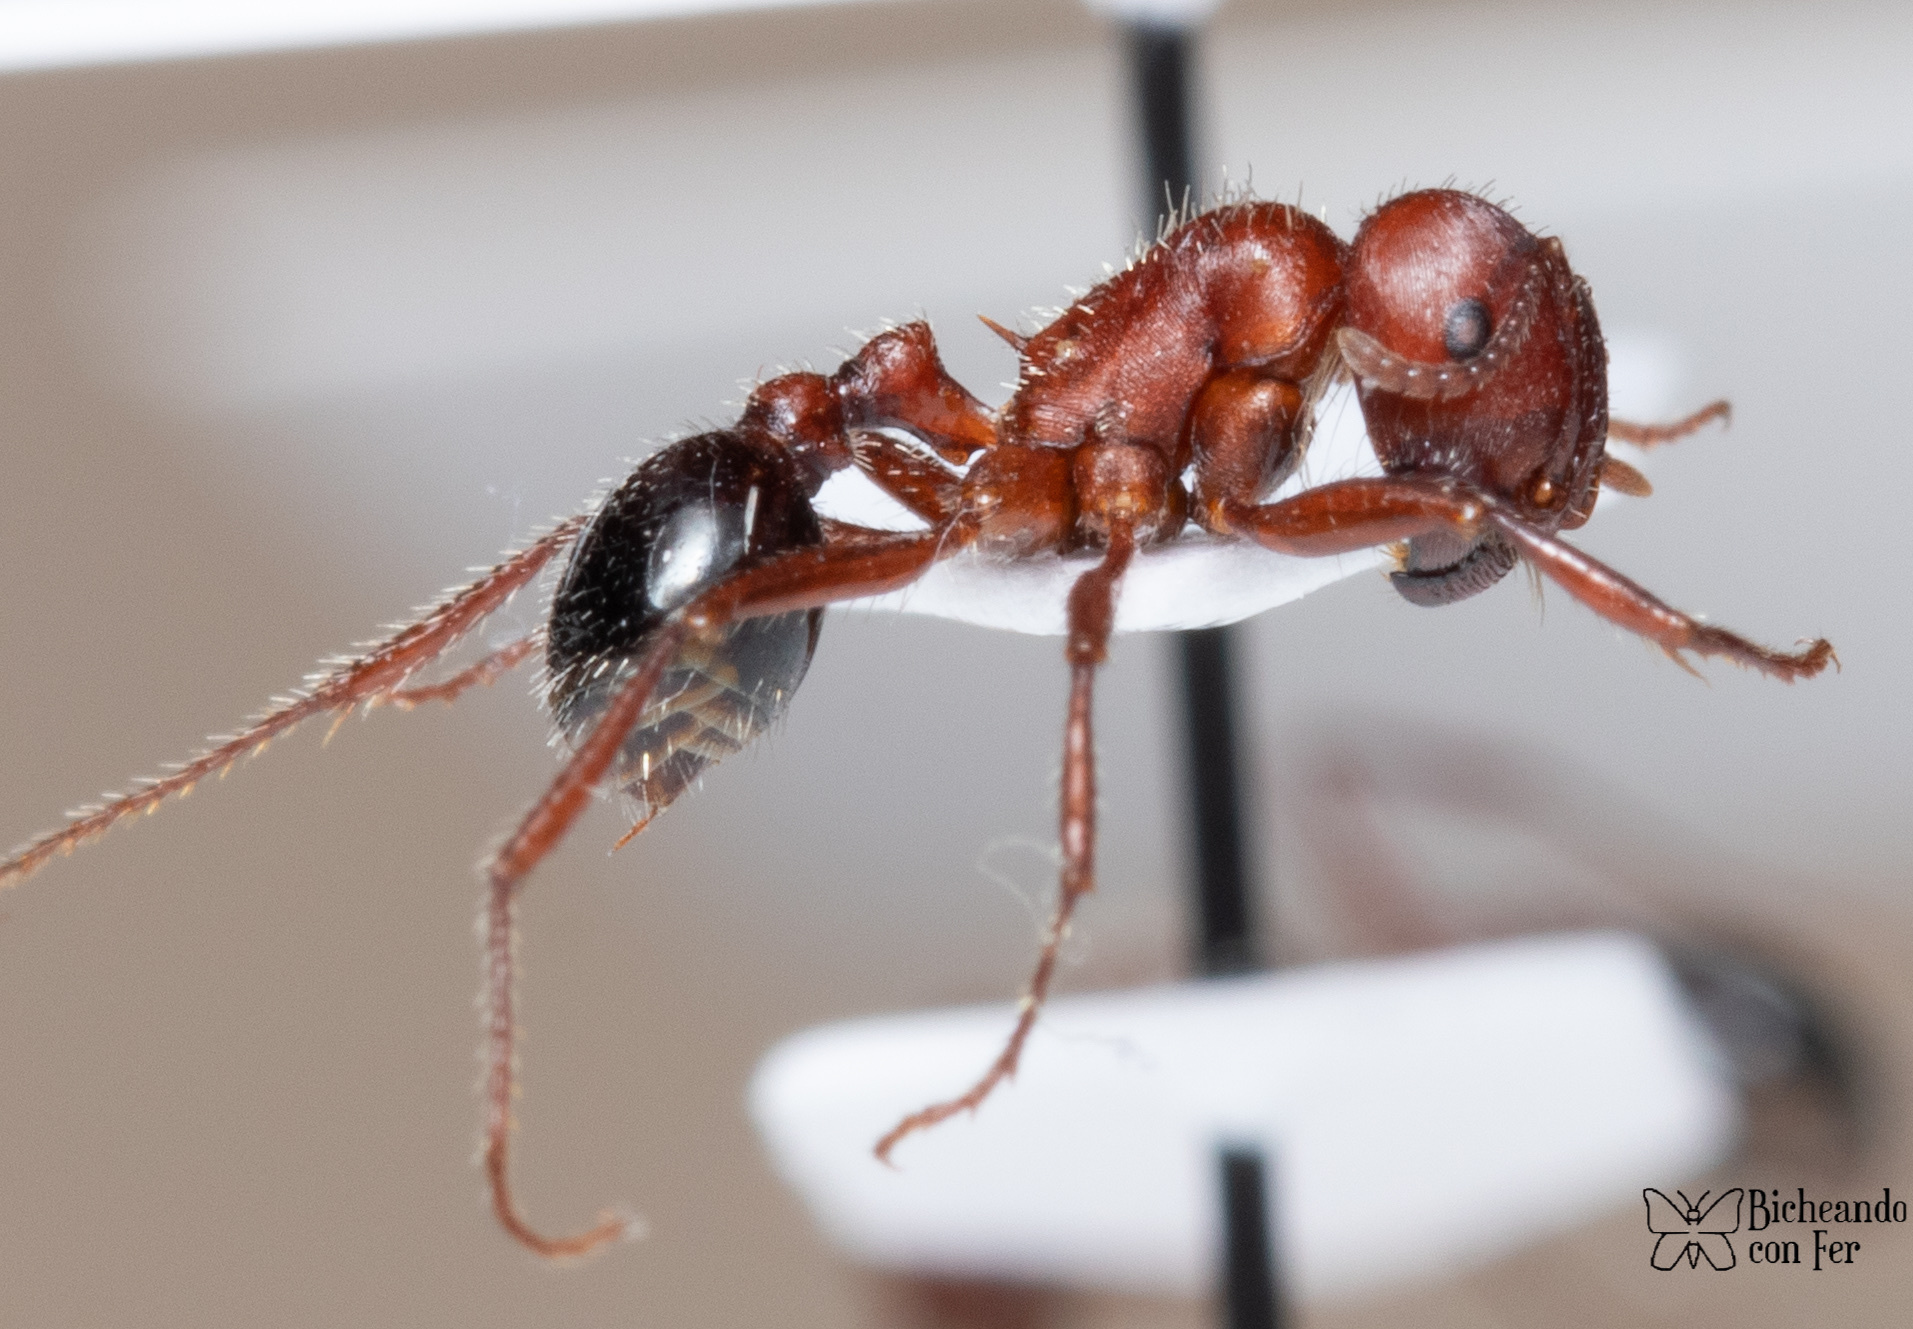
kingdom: Animalia
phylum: Arthropoda
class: Insecta
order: Hymenoptera
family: Formicidae
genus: Pogonomyrmex
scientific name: Pogonomyrmex bicolor
